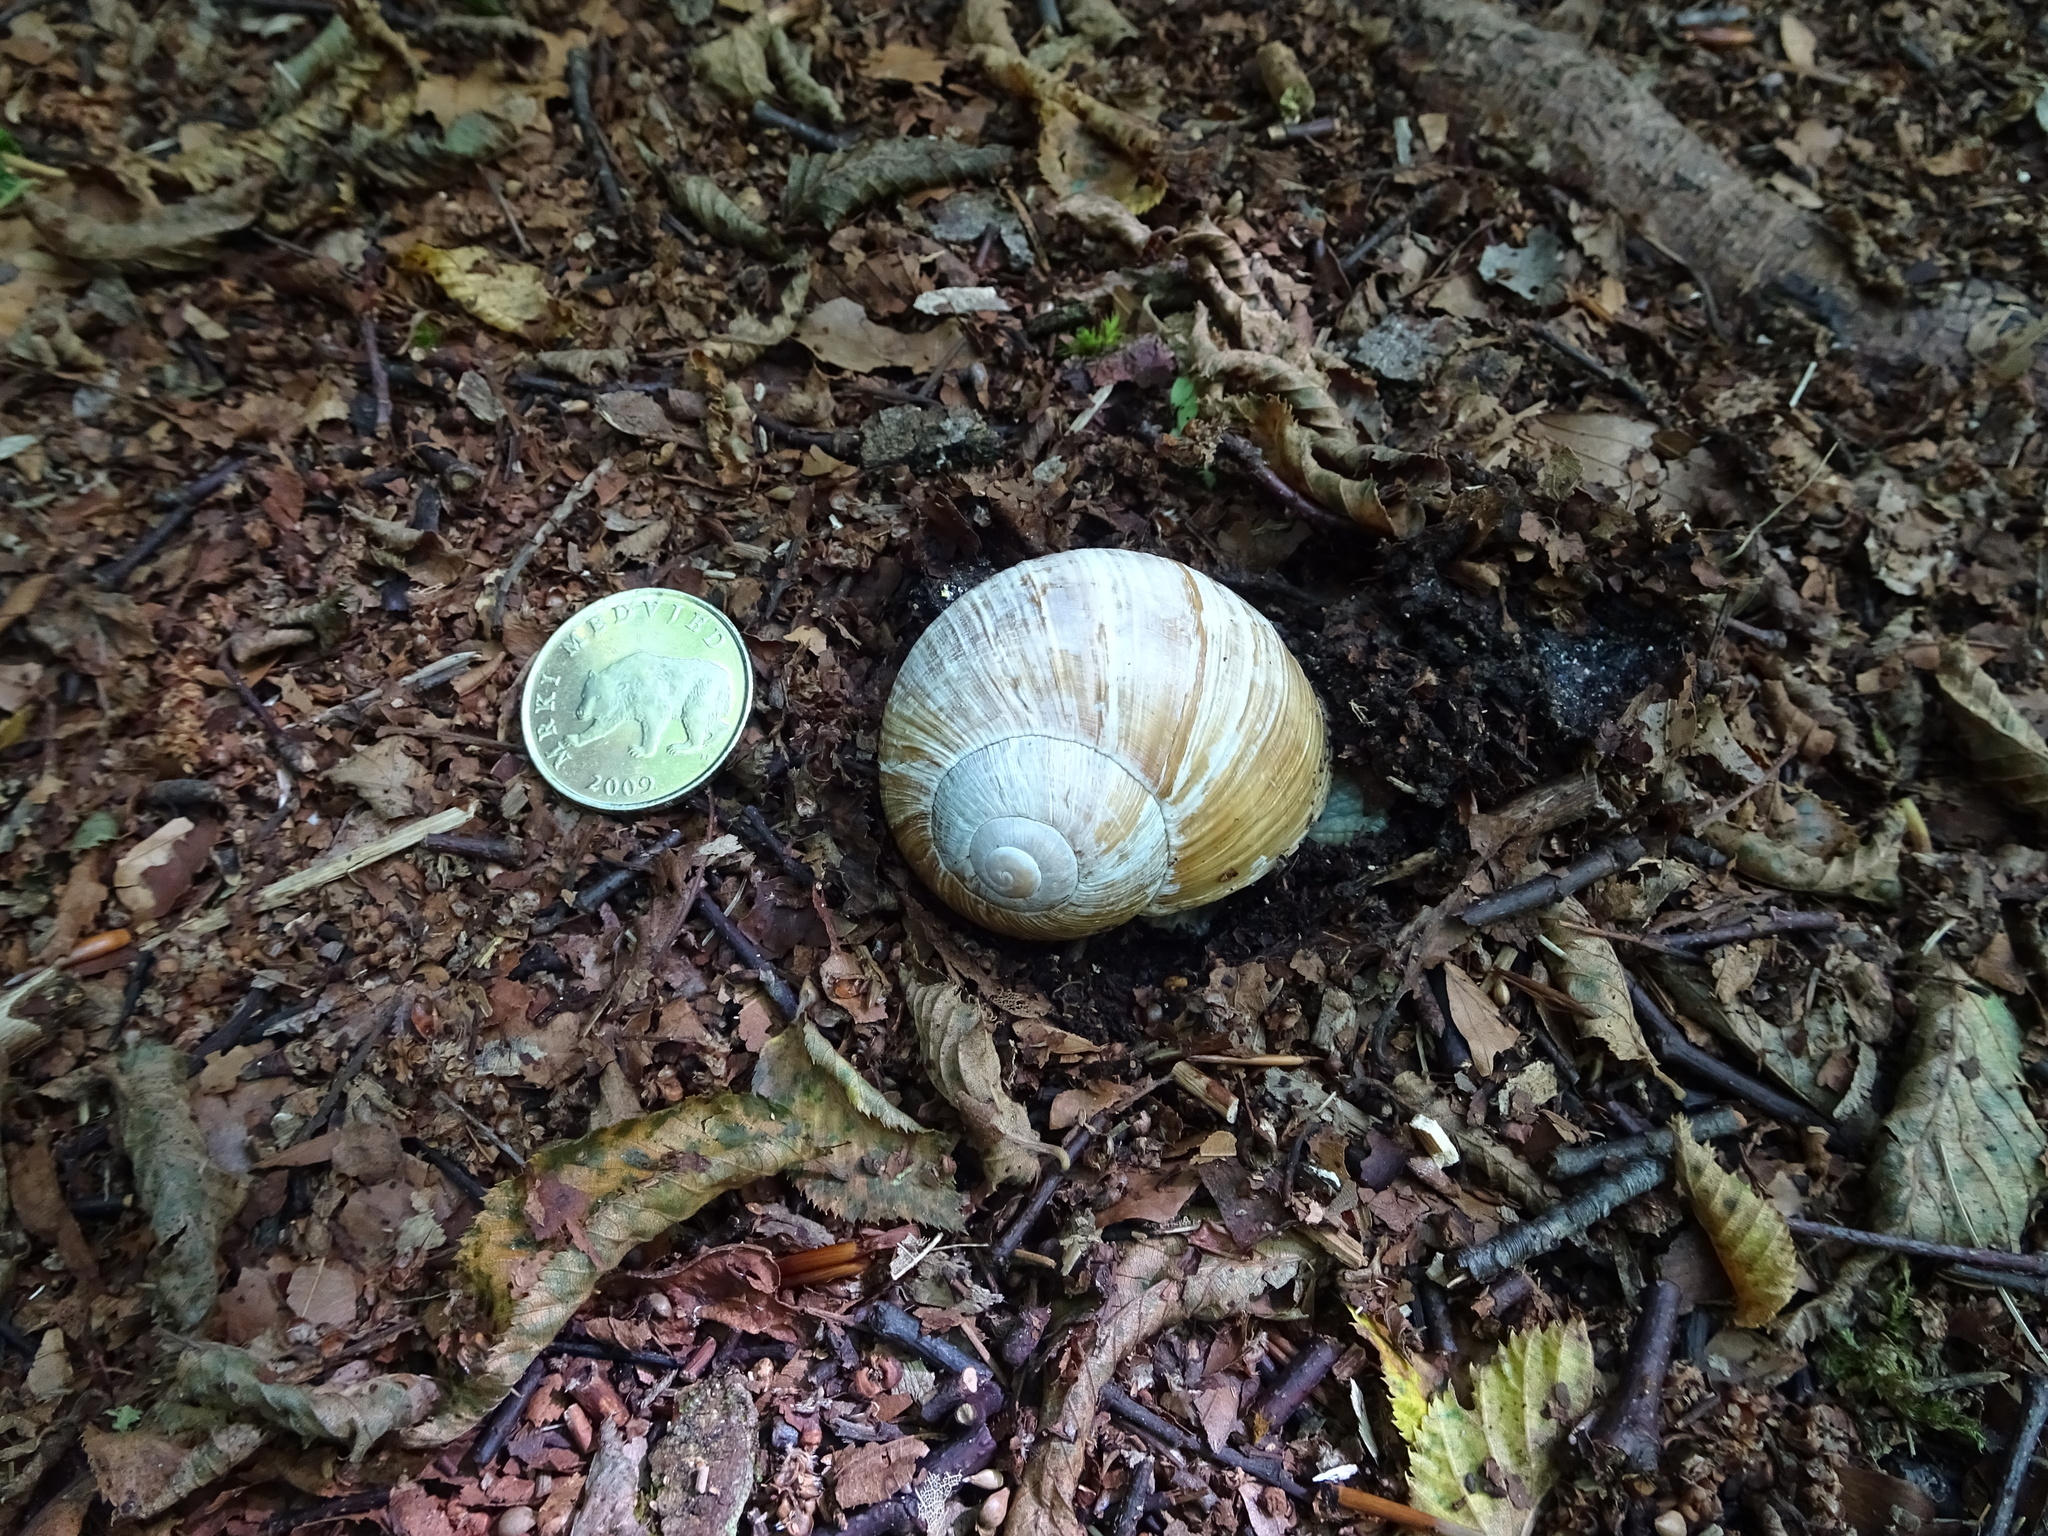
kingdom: Animalia
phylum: Mollusca
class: Gastropoda
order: Stylommatophora
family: Helicidae
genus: Helix
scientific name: Helix pomatia
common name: Roman snail
